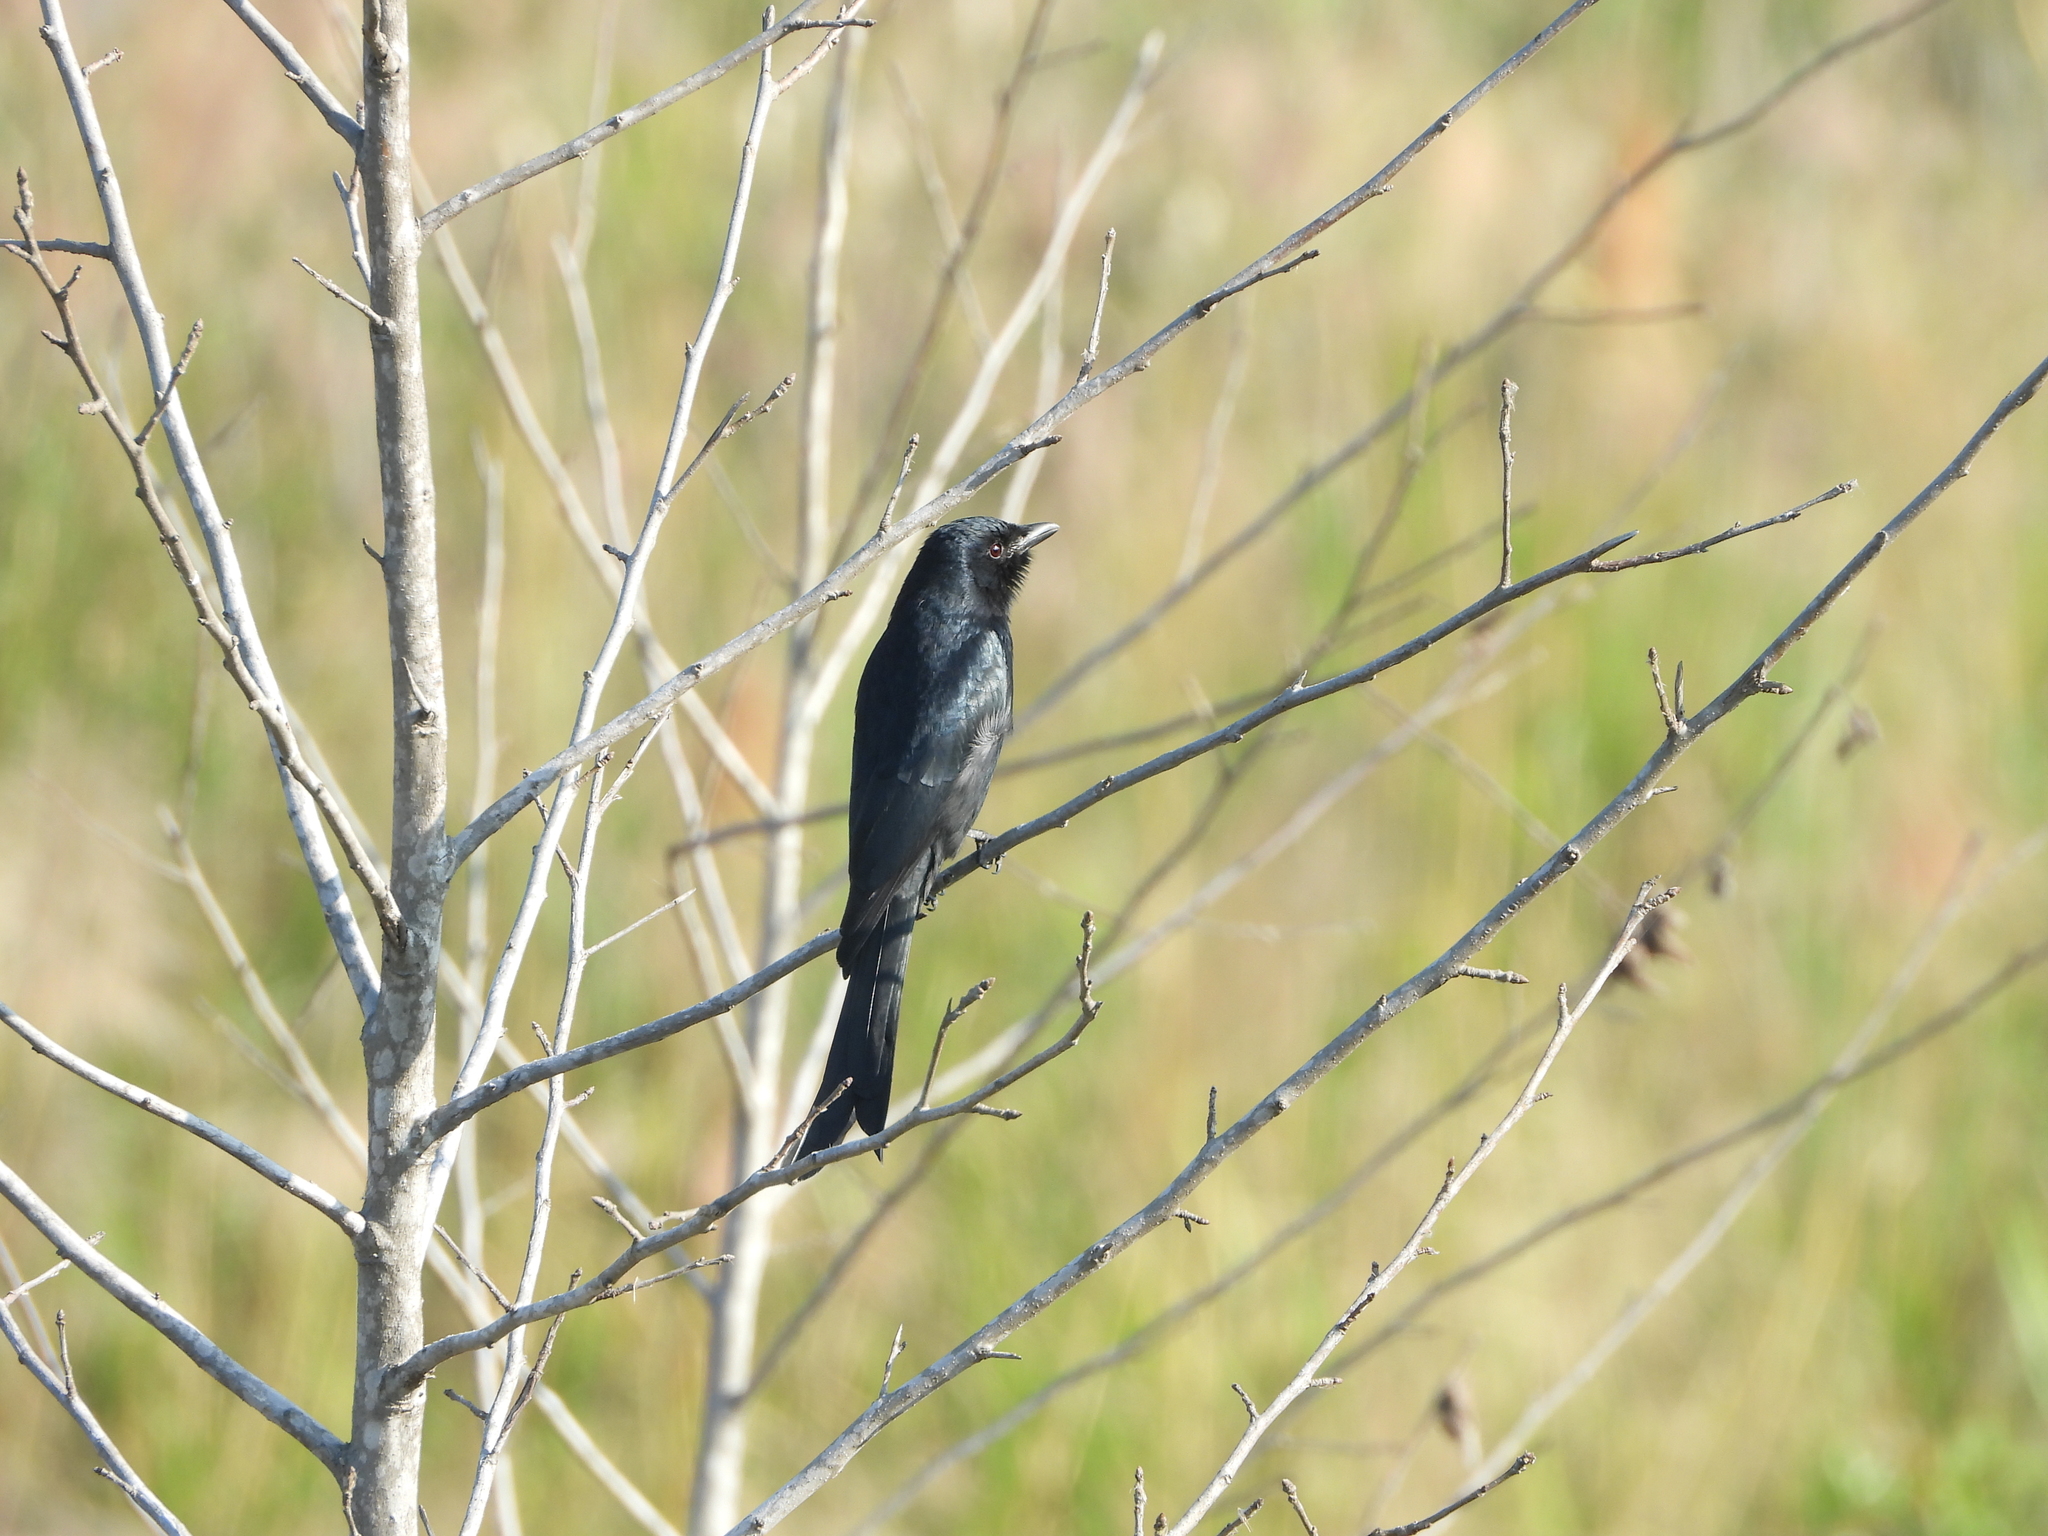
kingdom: Animalia
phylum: Chordata
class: Aves
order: Passeriformes
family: Dicruridae
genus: Dicrurus
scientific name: Dicrurus macrocercus
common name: Black drongo
